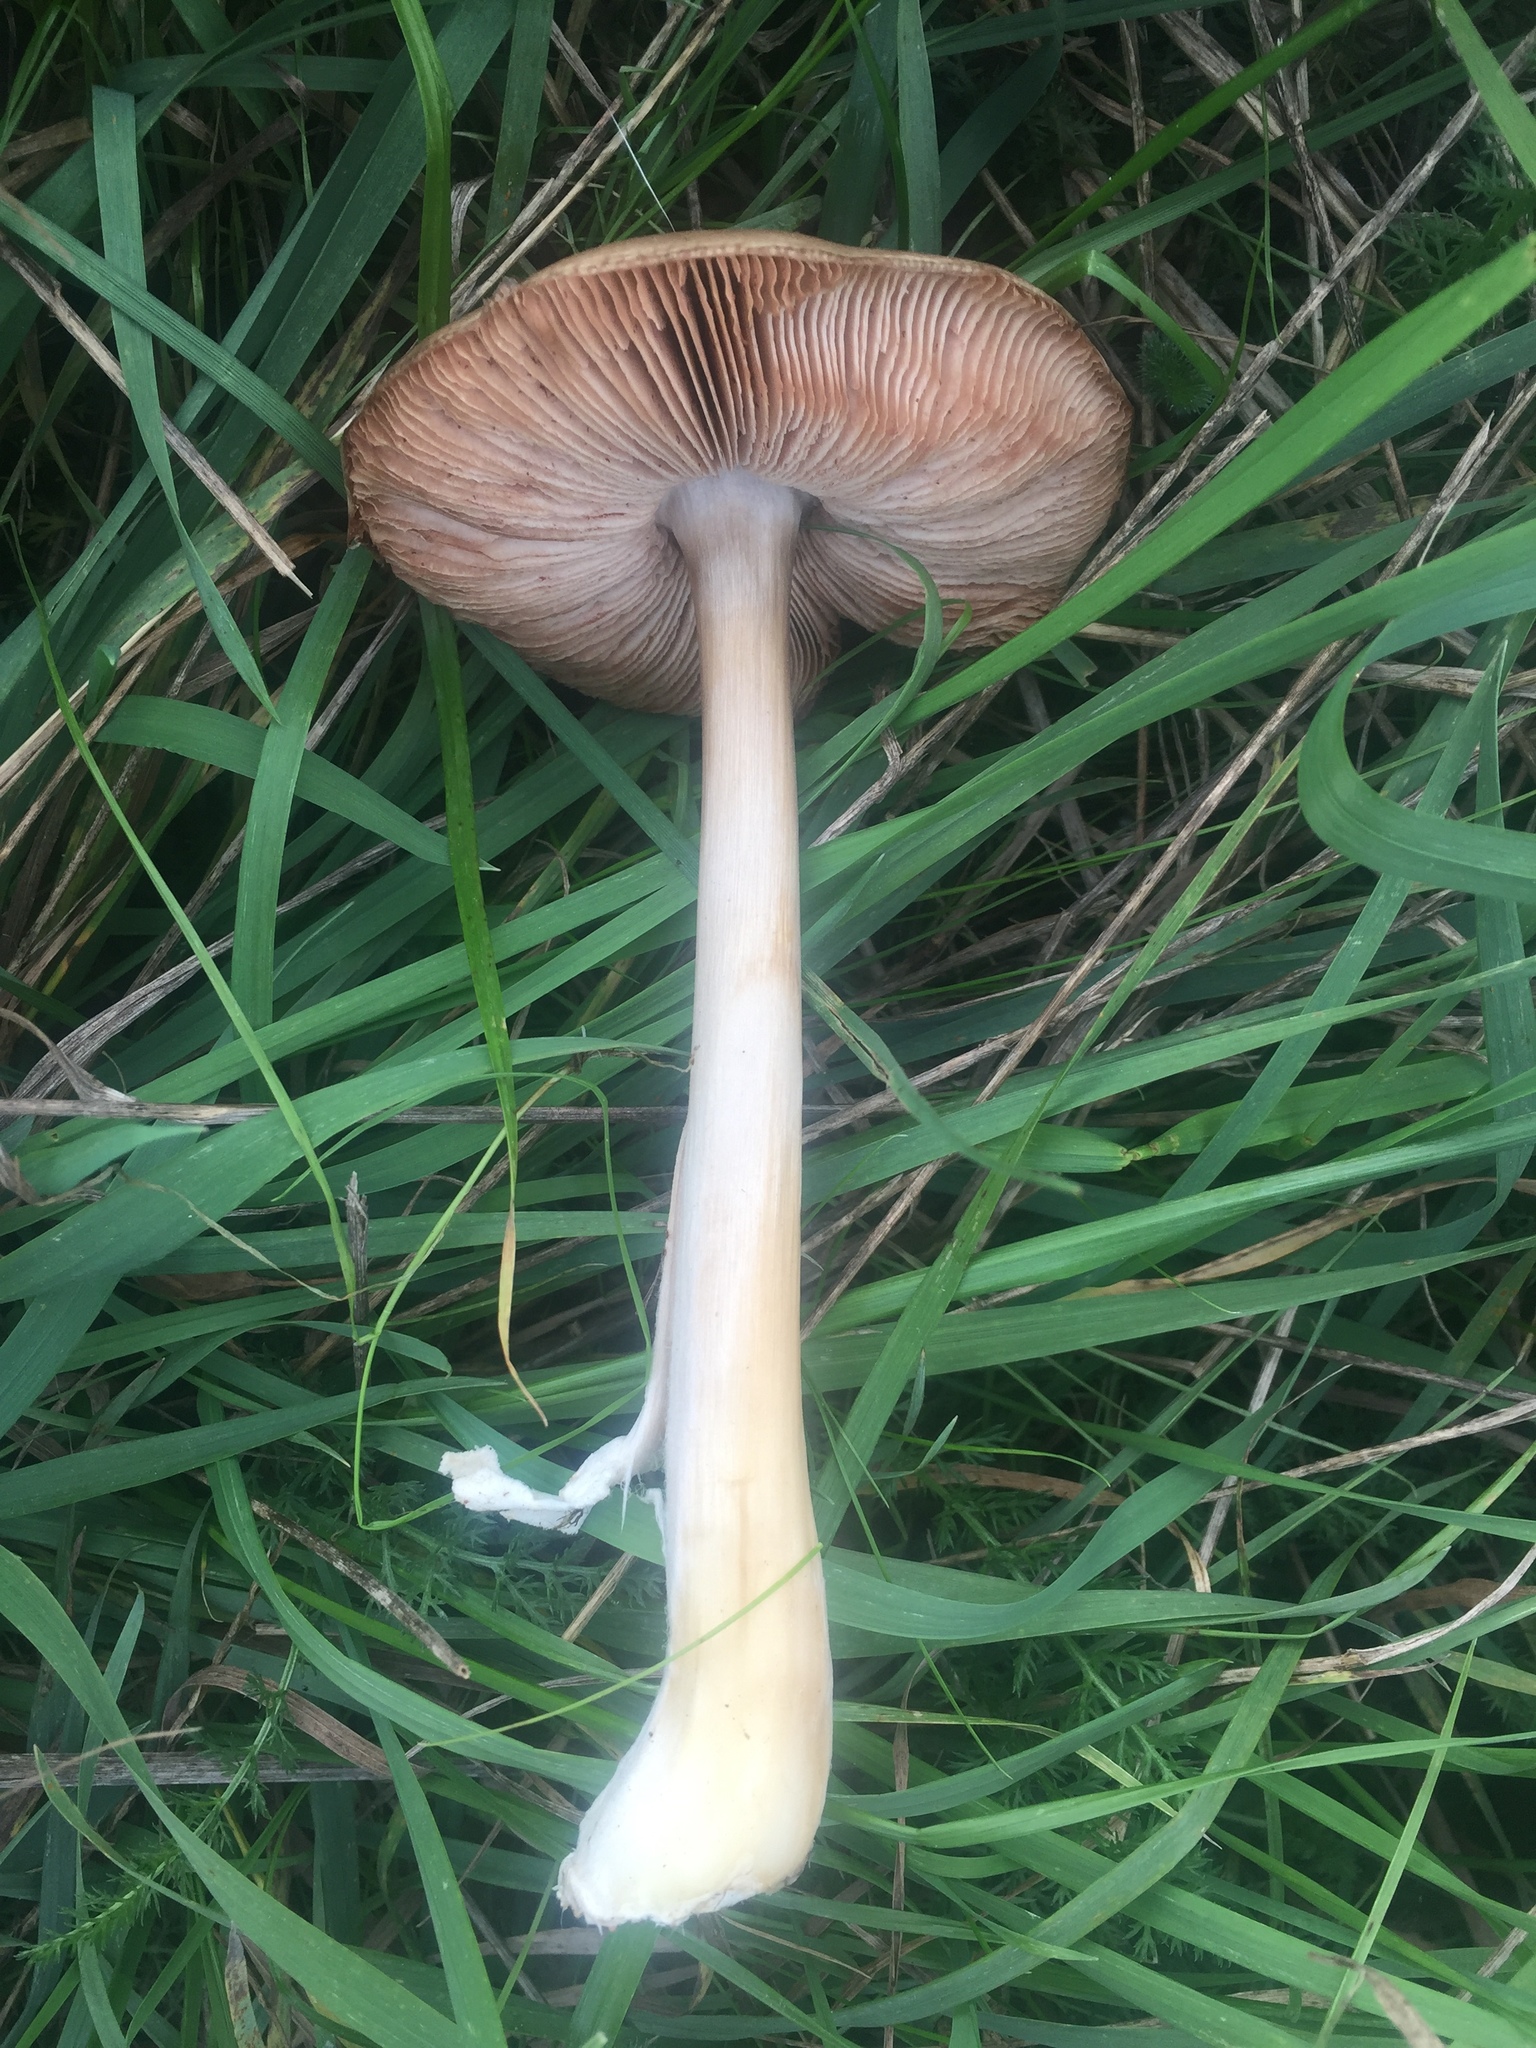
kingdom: Fungi
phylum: Basidiomycota
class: Agaricomycetes
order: Agaricales
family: Pluteaceae
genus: Volvopluteus
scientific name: Volvopluteus gloiocephalus
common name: Stubble rosegill
